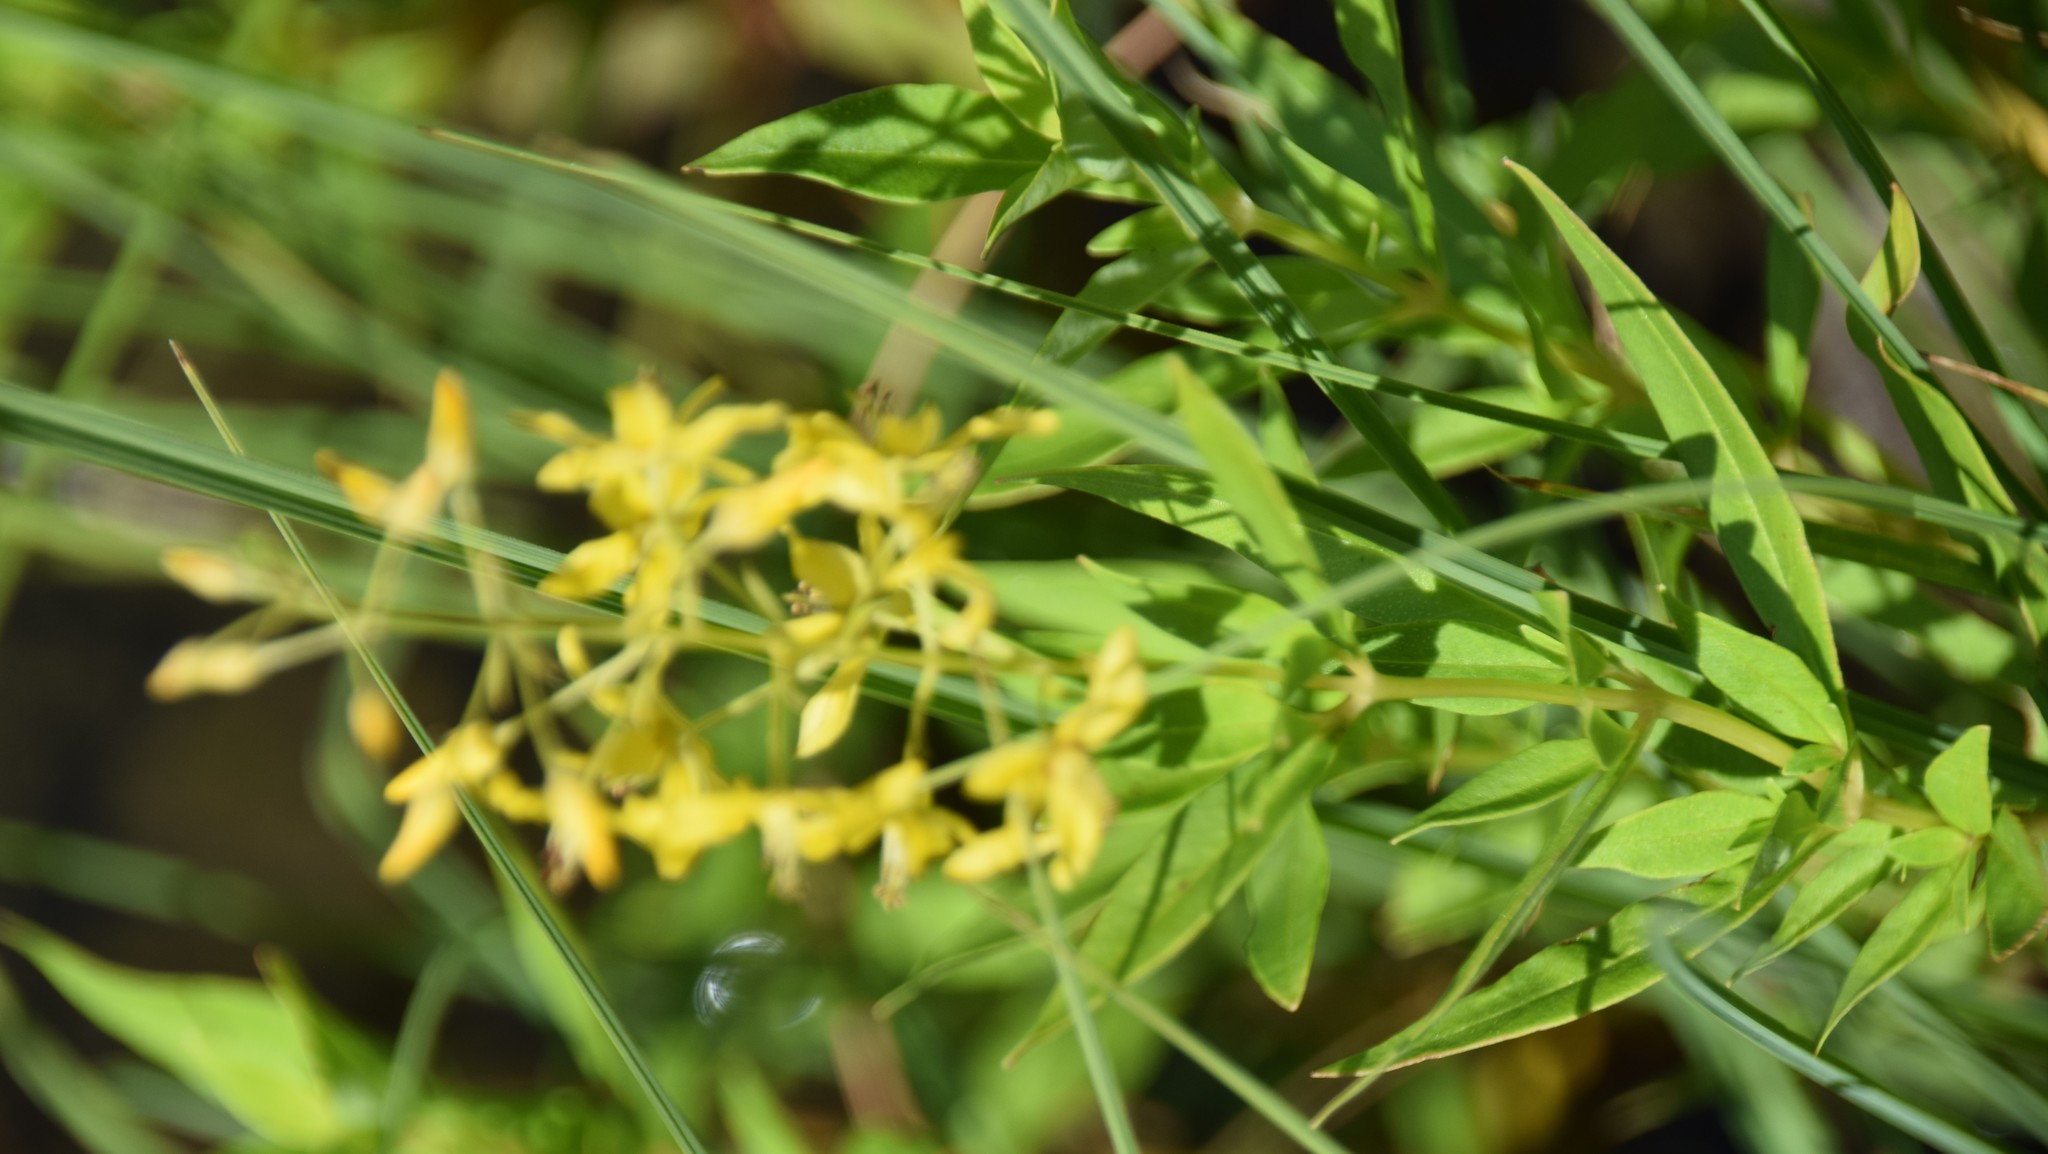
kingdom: Plantae
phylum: Tracheophyta
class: Magnoliopsida
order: Ericales
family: Primulaceae
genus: Lysimachia
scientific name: Lysimachia terrestris
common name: Lake loosestrife
